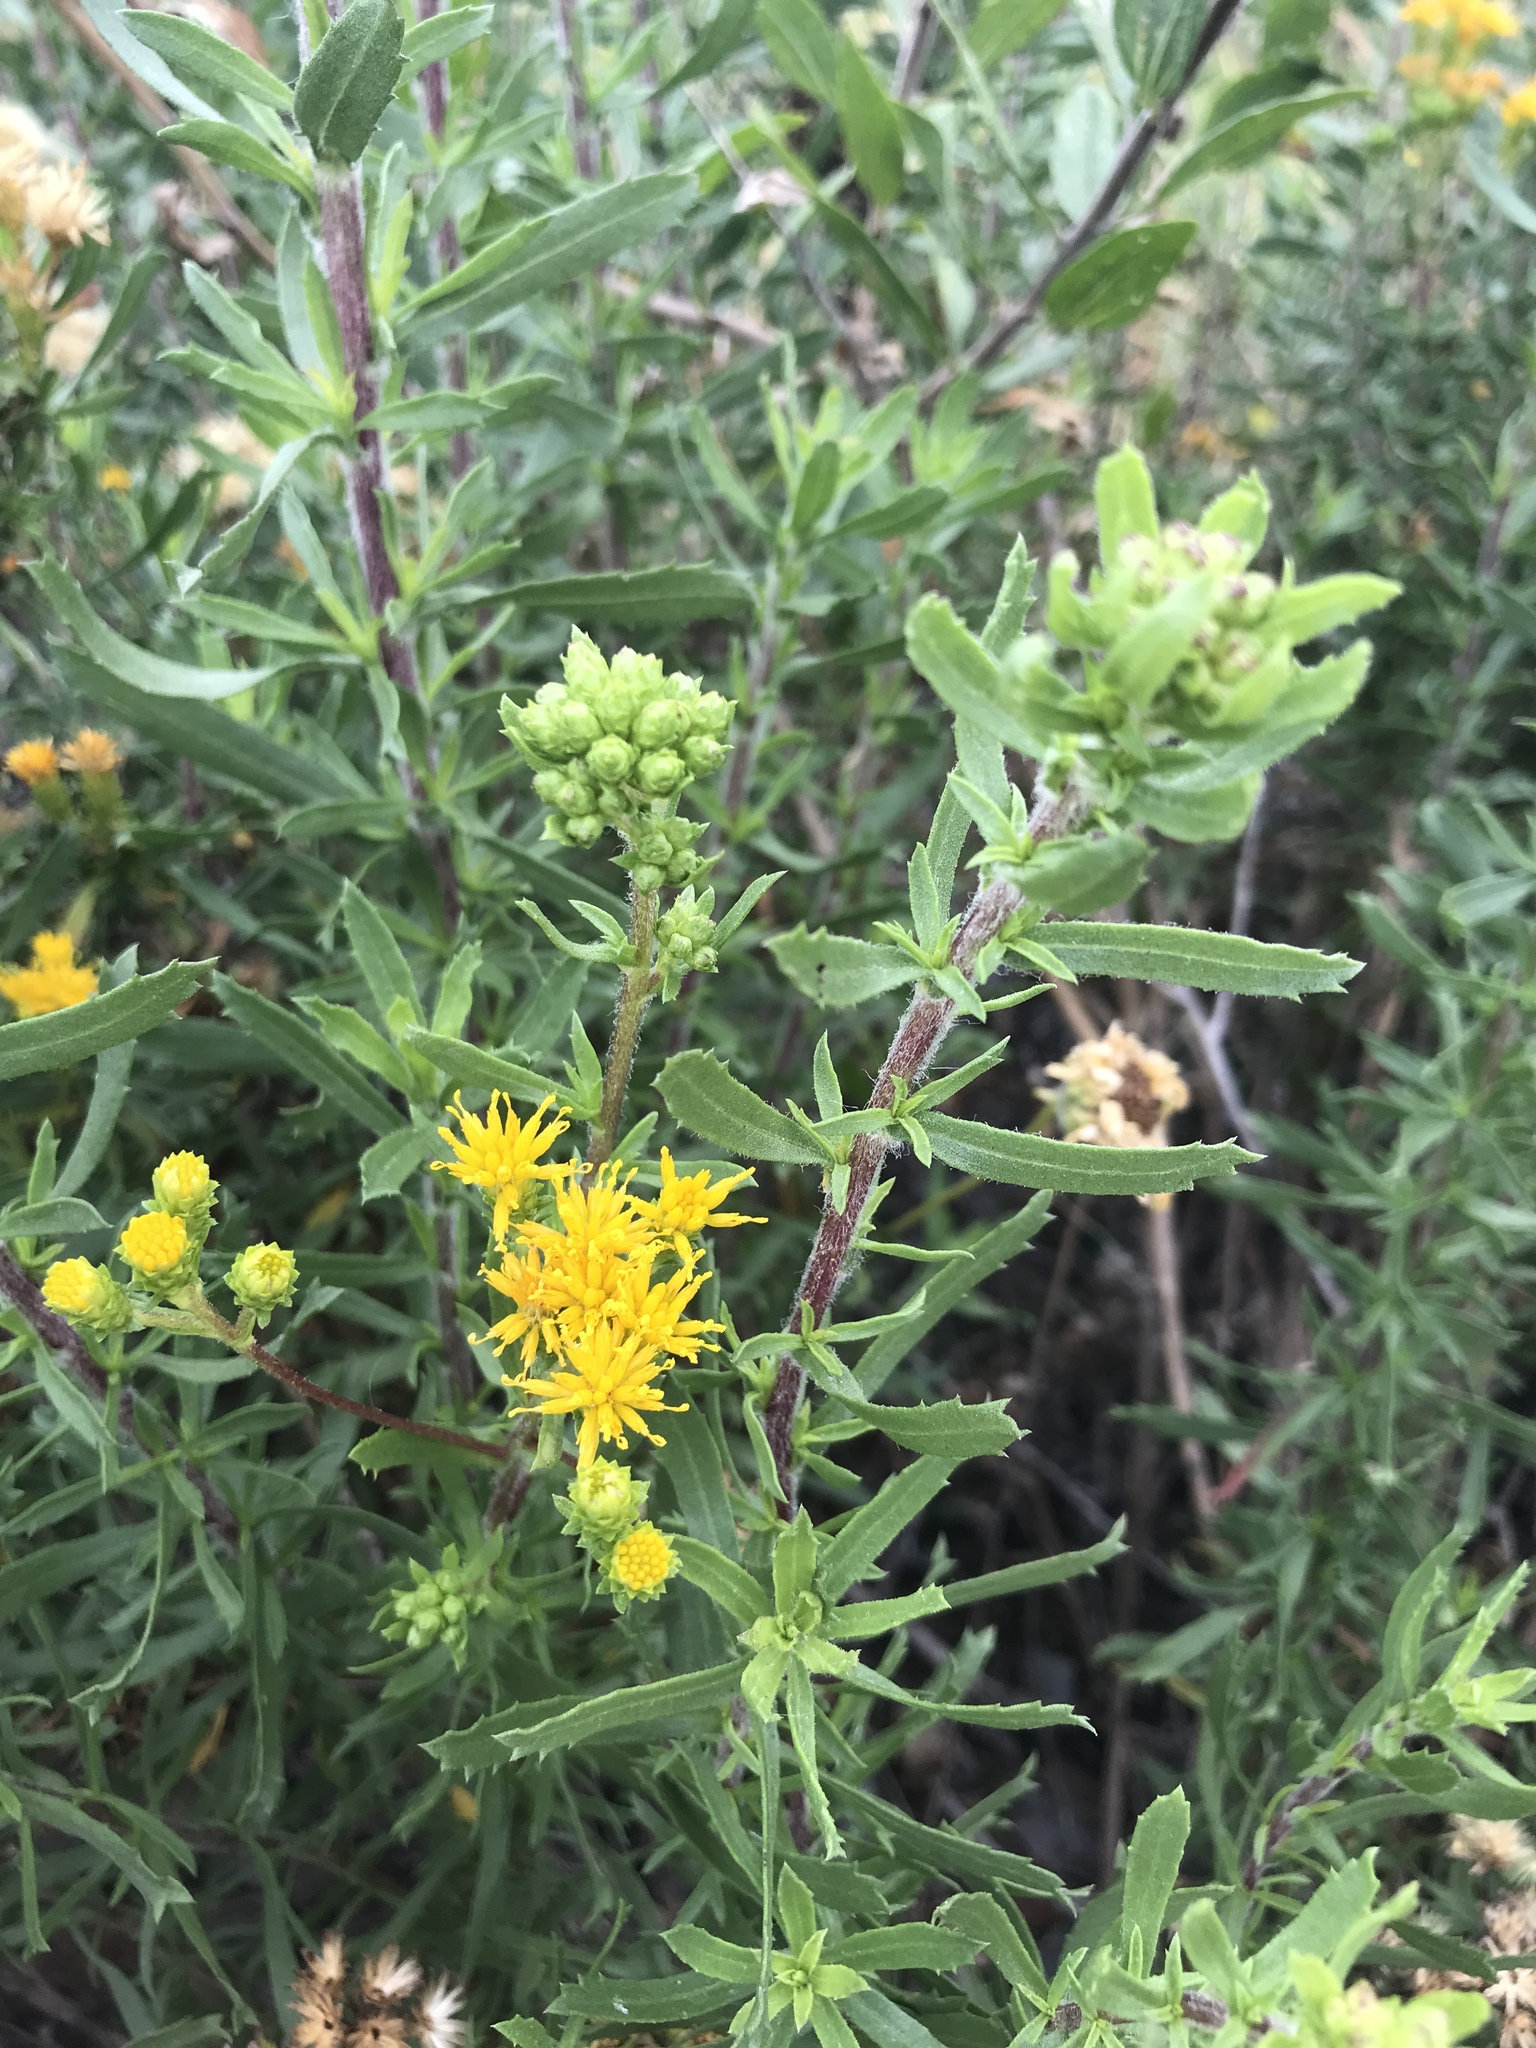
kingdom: Plantae
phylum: Tracheophyta
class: Magnoliopsida
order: Asterales
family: Asteraceae
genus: Isocoma
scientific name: Isocoma menziesii
